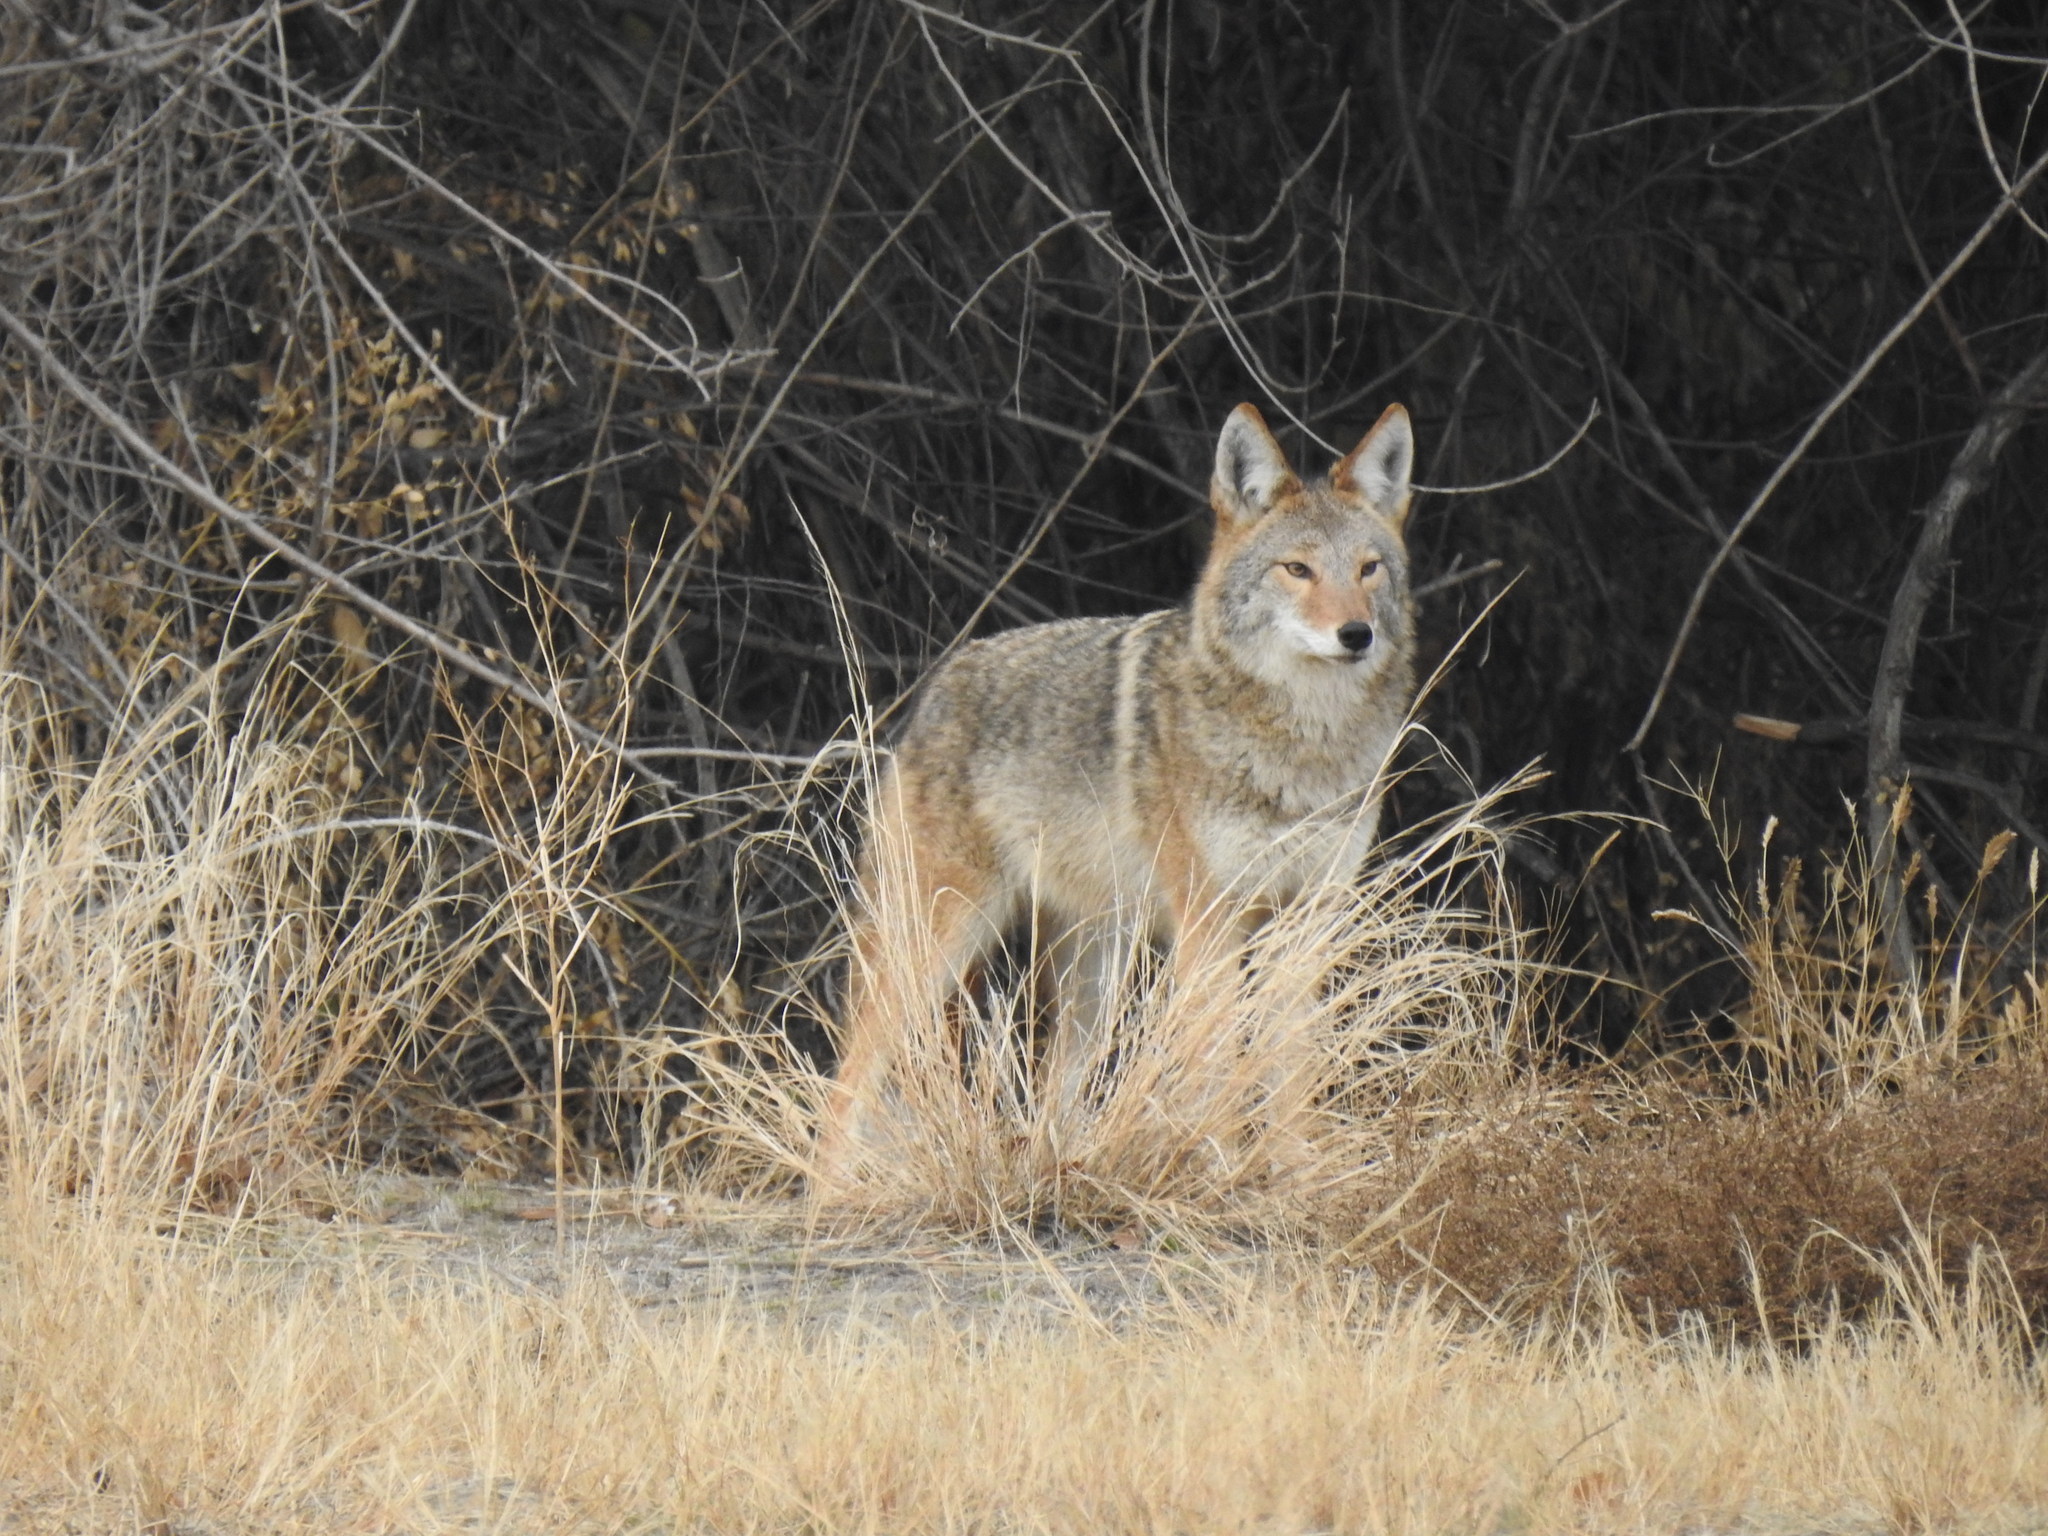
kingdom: Animalia
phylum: Chordata
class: Mammalia
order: Carnivora
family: Canidae
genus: Canis
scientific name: Canis latrans
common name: Coyote
